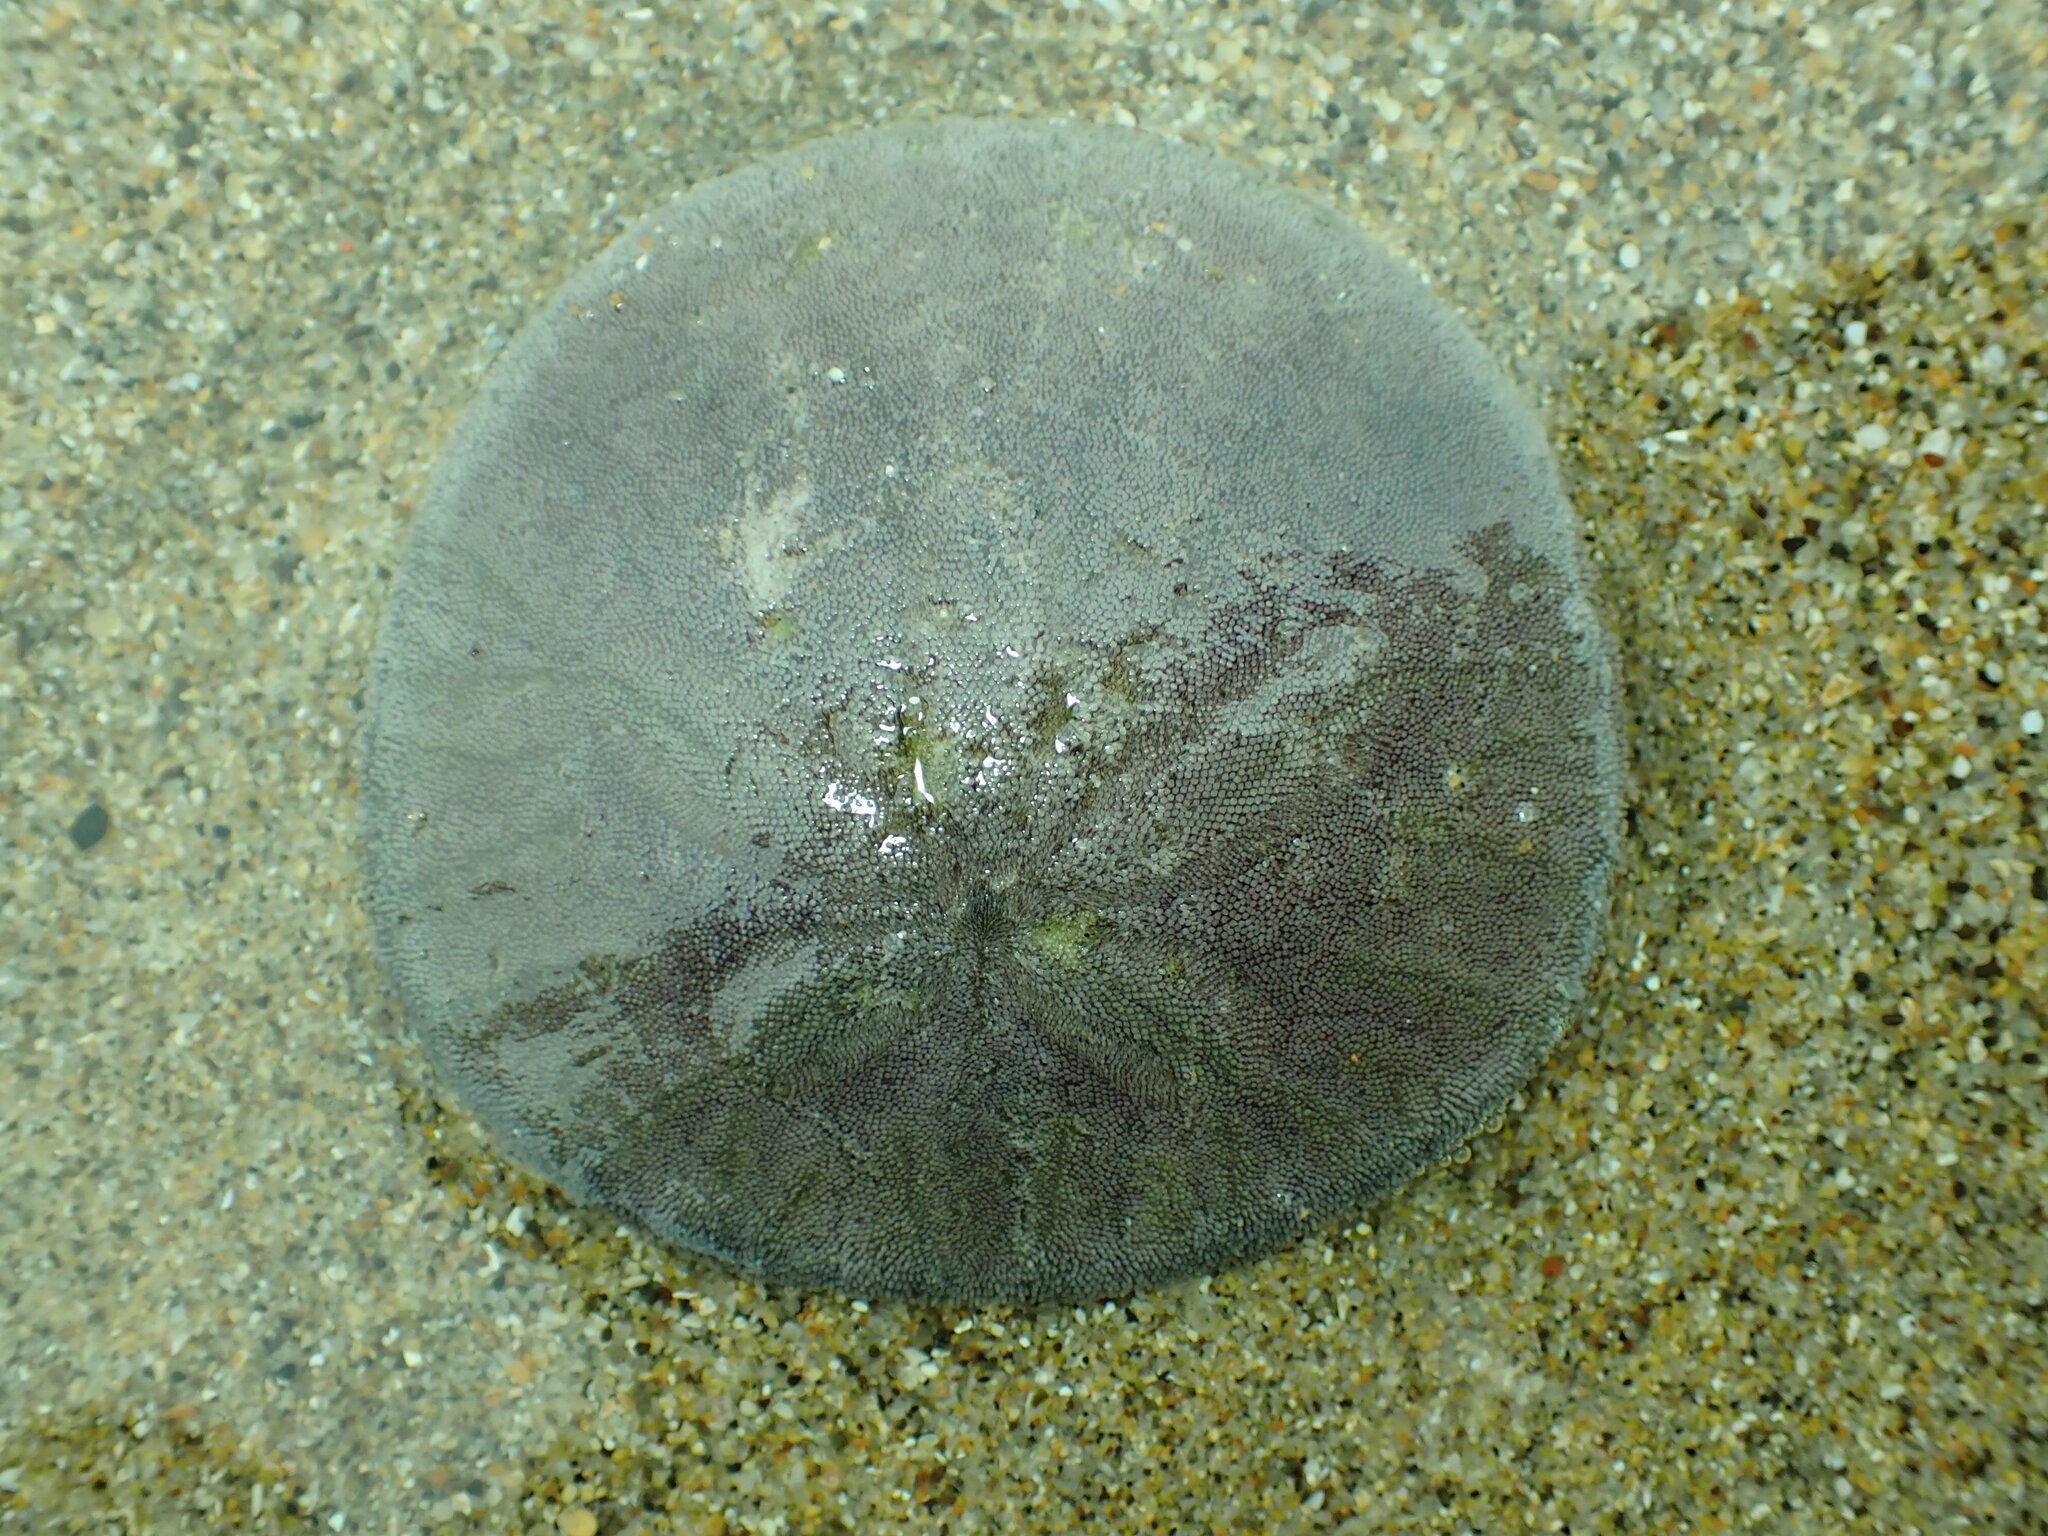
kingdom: Animalia
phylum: Echinodermata
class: Echinoidea
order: Echinolampadacea
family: Dendrasteridae
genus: Dendraster
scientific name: Dendraster excentricus
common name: Eccentric sand dollar sea urchin
